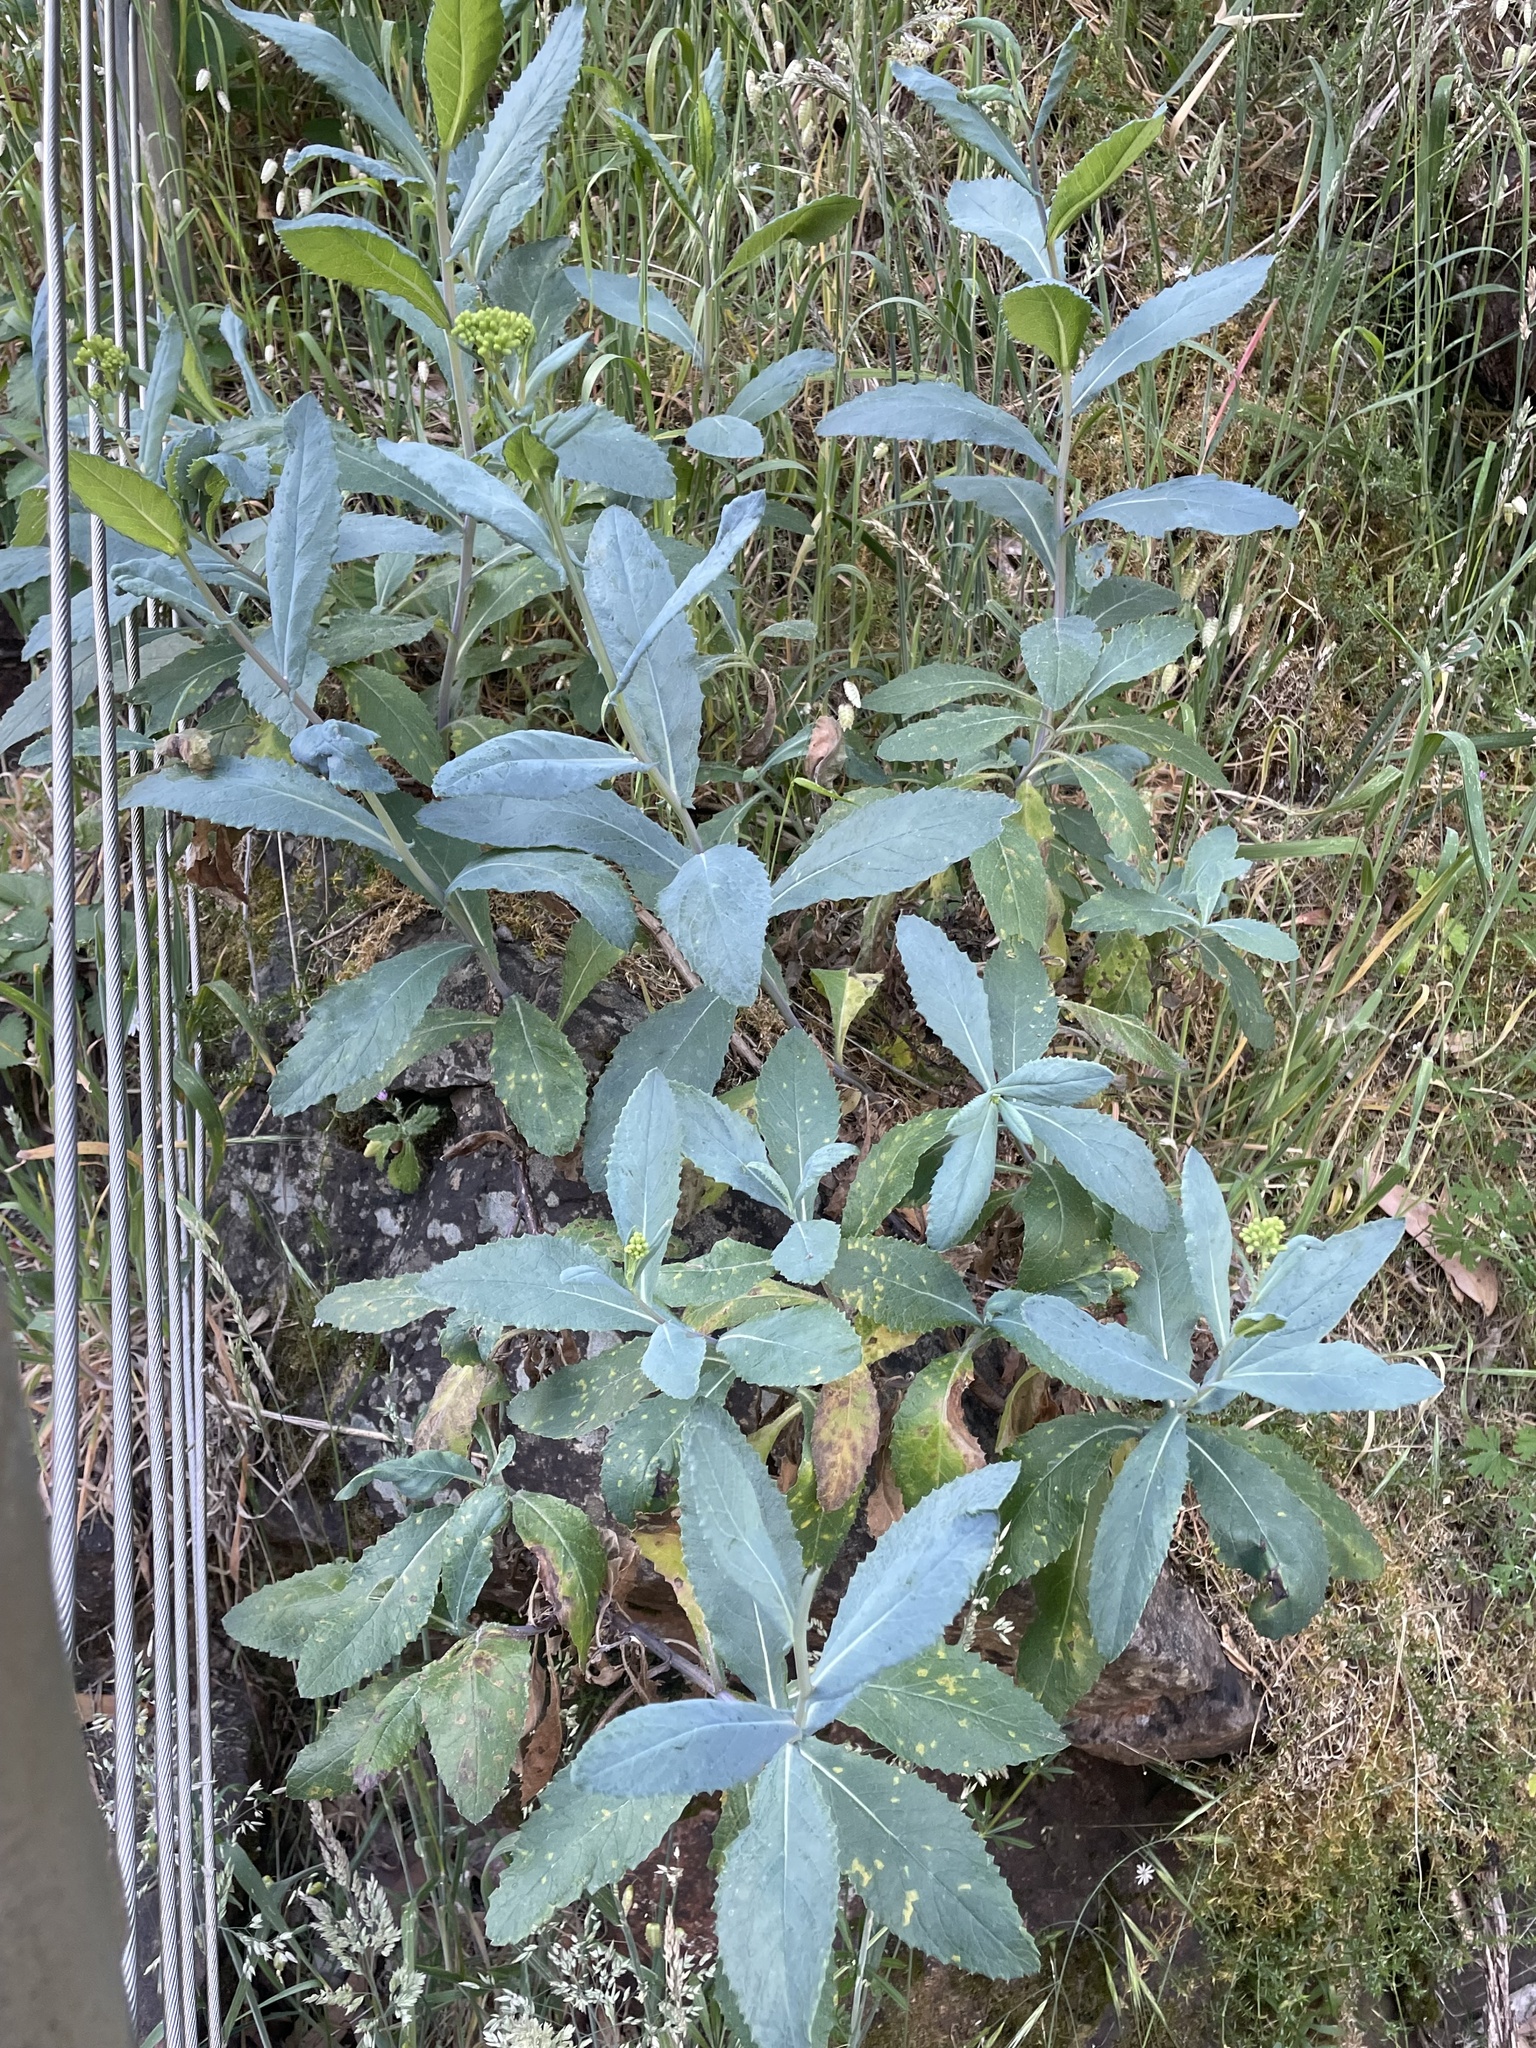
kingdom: Plantae
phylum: Tracheophyta
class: Magnoliopsida
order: Asterales
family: Asteraceae
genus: Senecio
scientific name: Senecio odoratus
